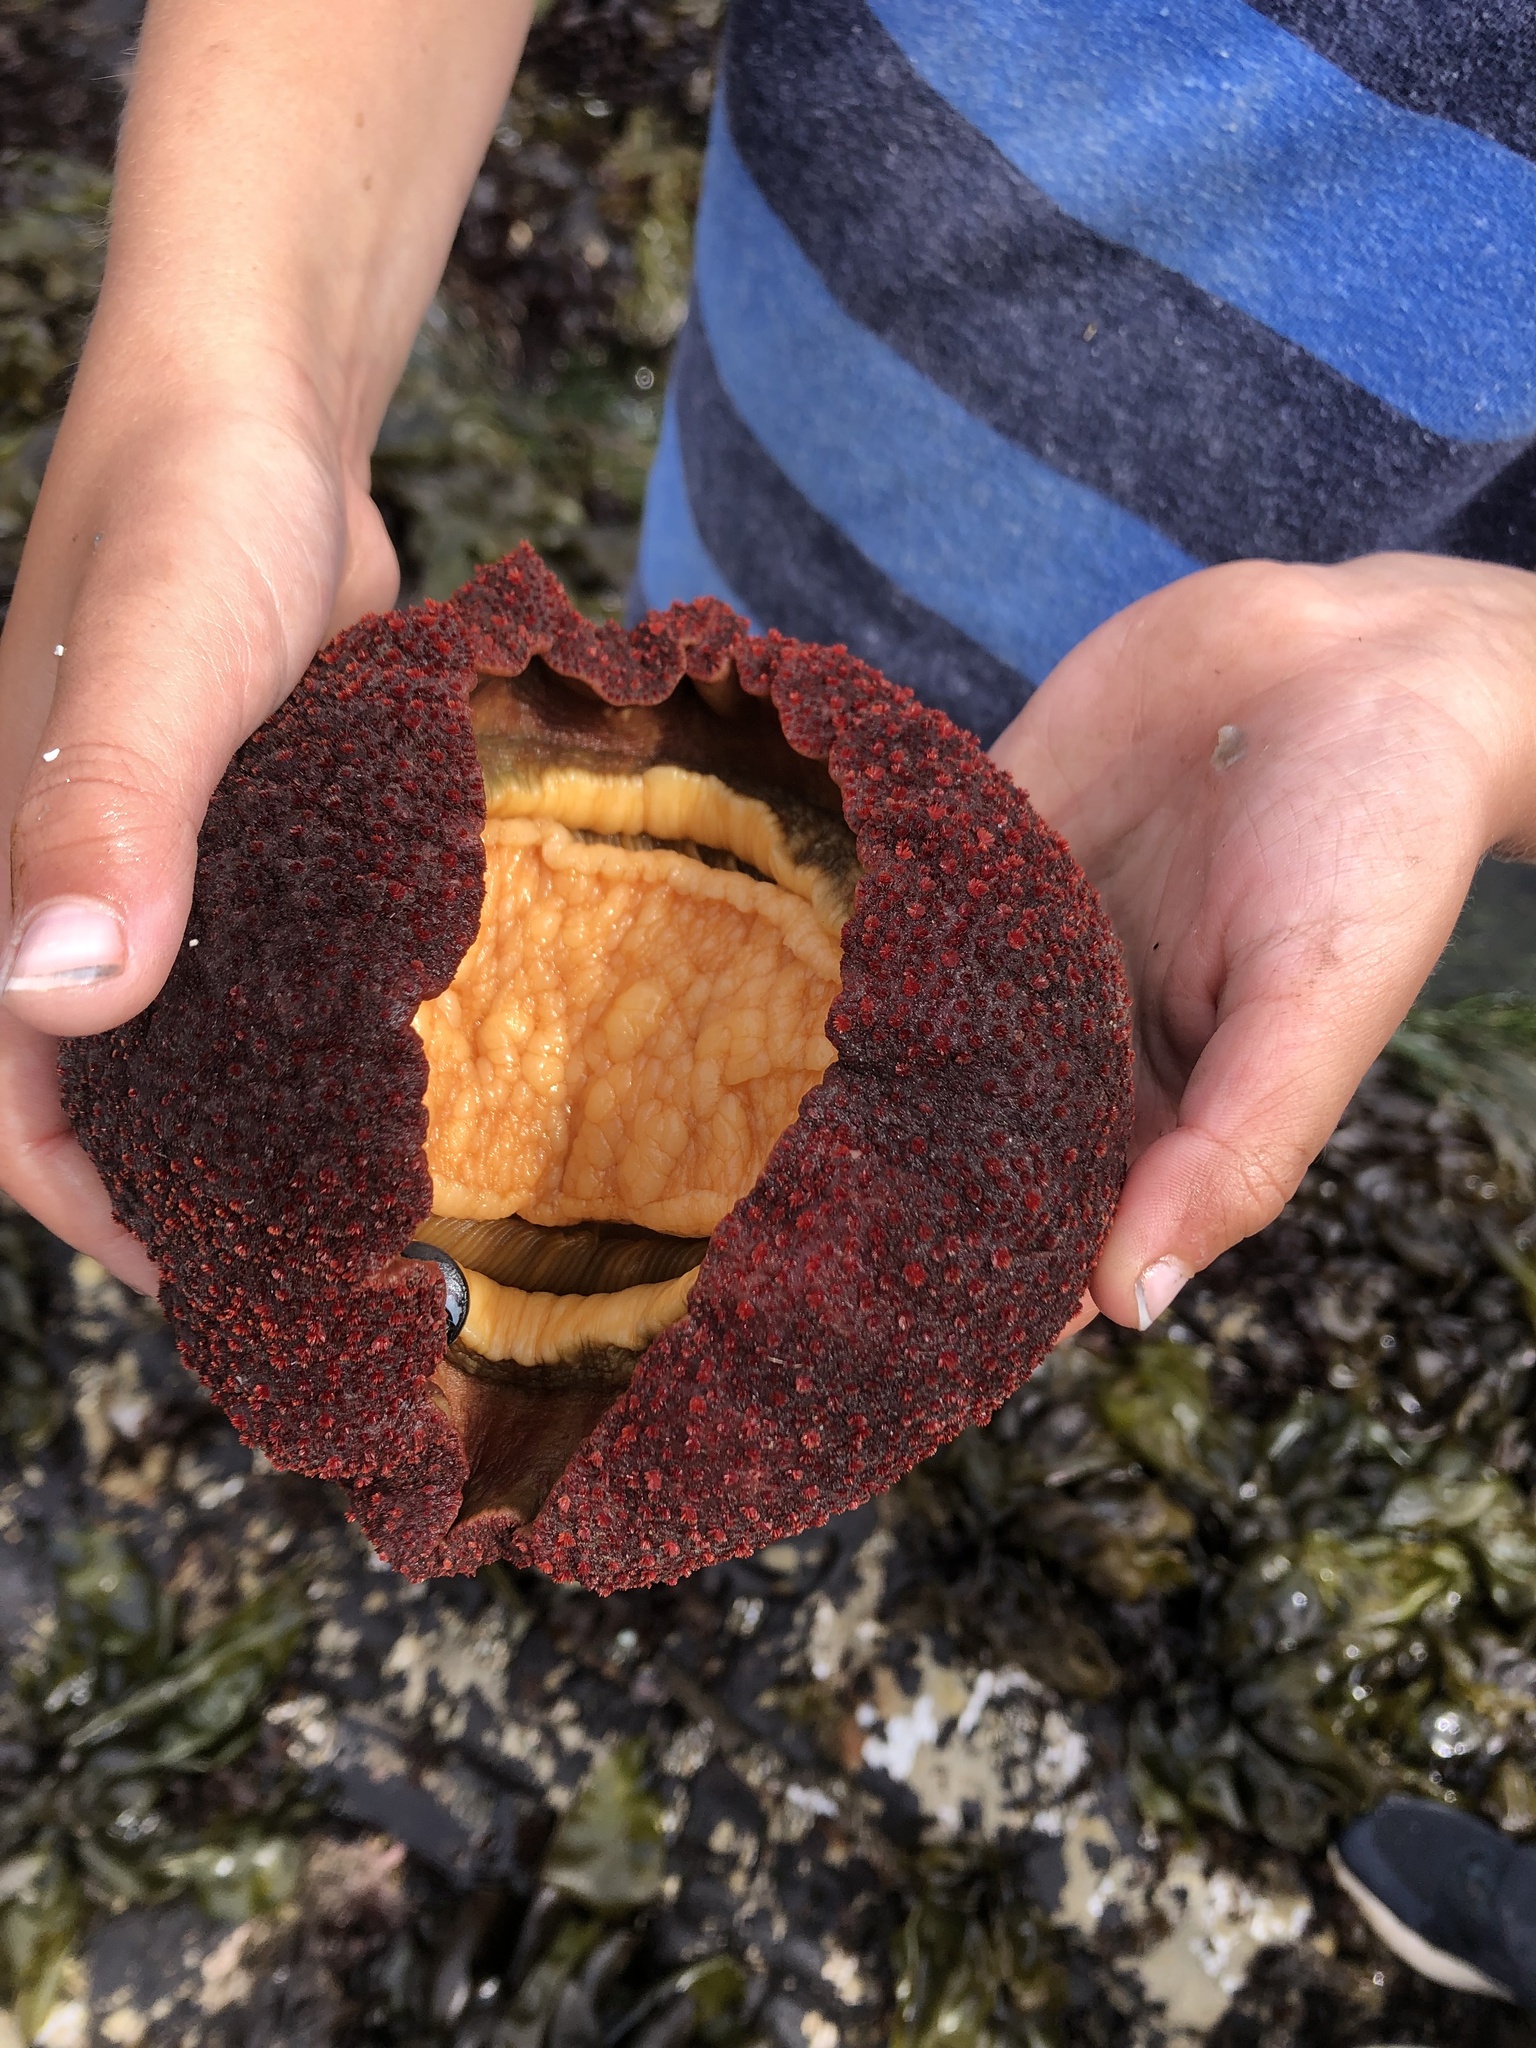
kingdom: Animalia
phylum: Mollusca
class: Polyplacophora
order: Chitonida
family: Acanthochitonidae
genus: Cryptochiton
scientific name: Cryptochiton stelleri
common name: Giant pacific chiton
